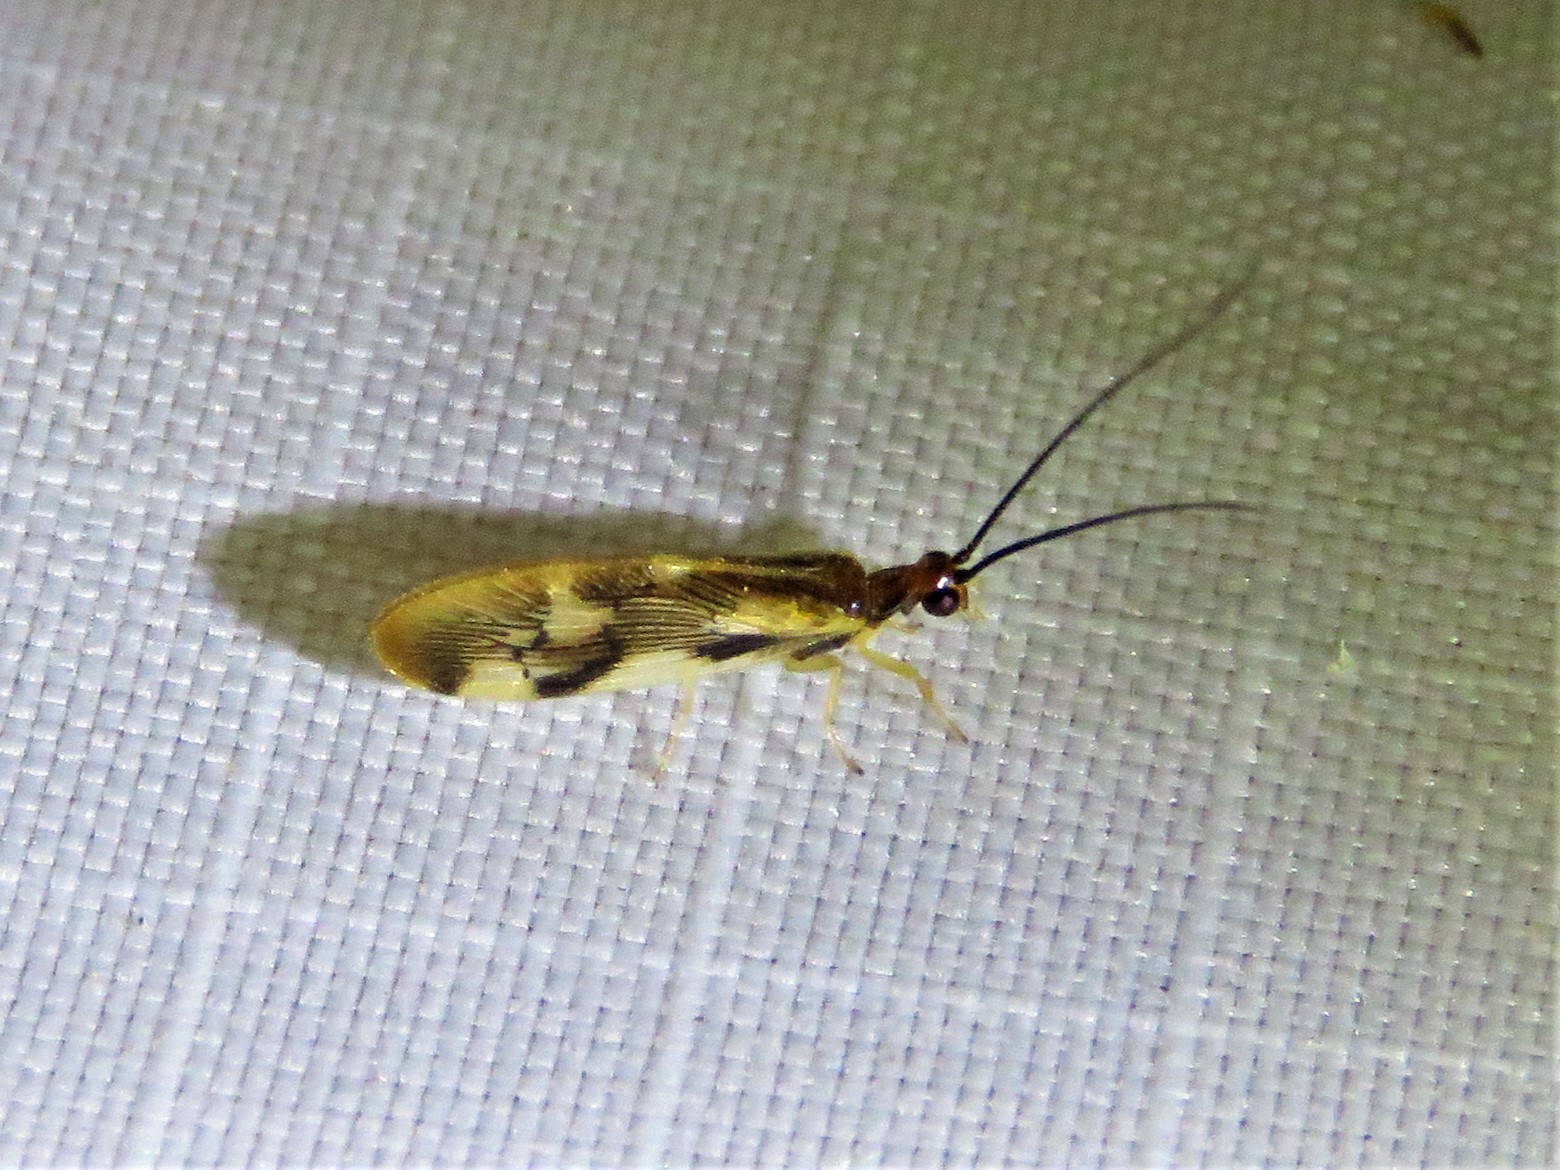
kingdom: Animalia
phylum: Arthropoda
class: Insecta
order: Neuroptera
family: Sisyridae
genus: Climacia
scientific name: Climacia areolaris
